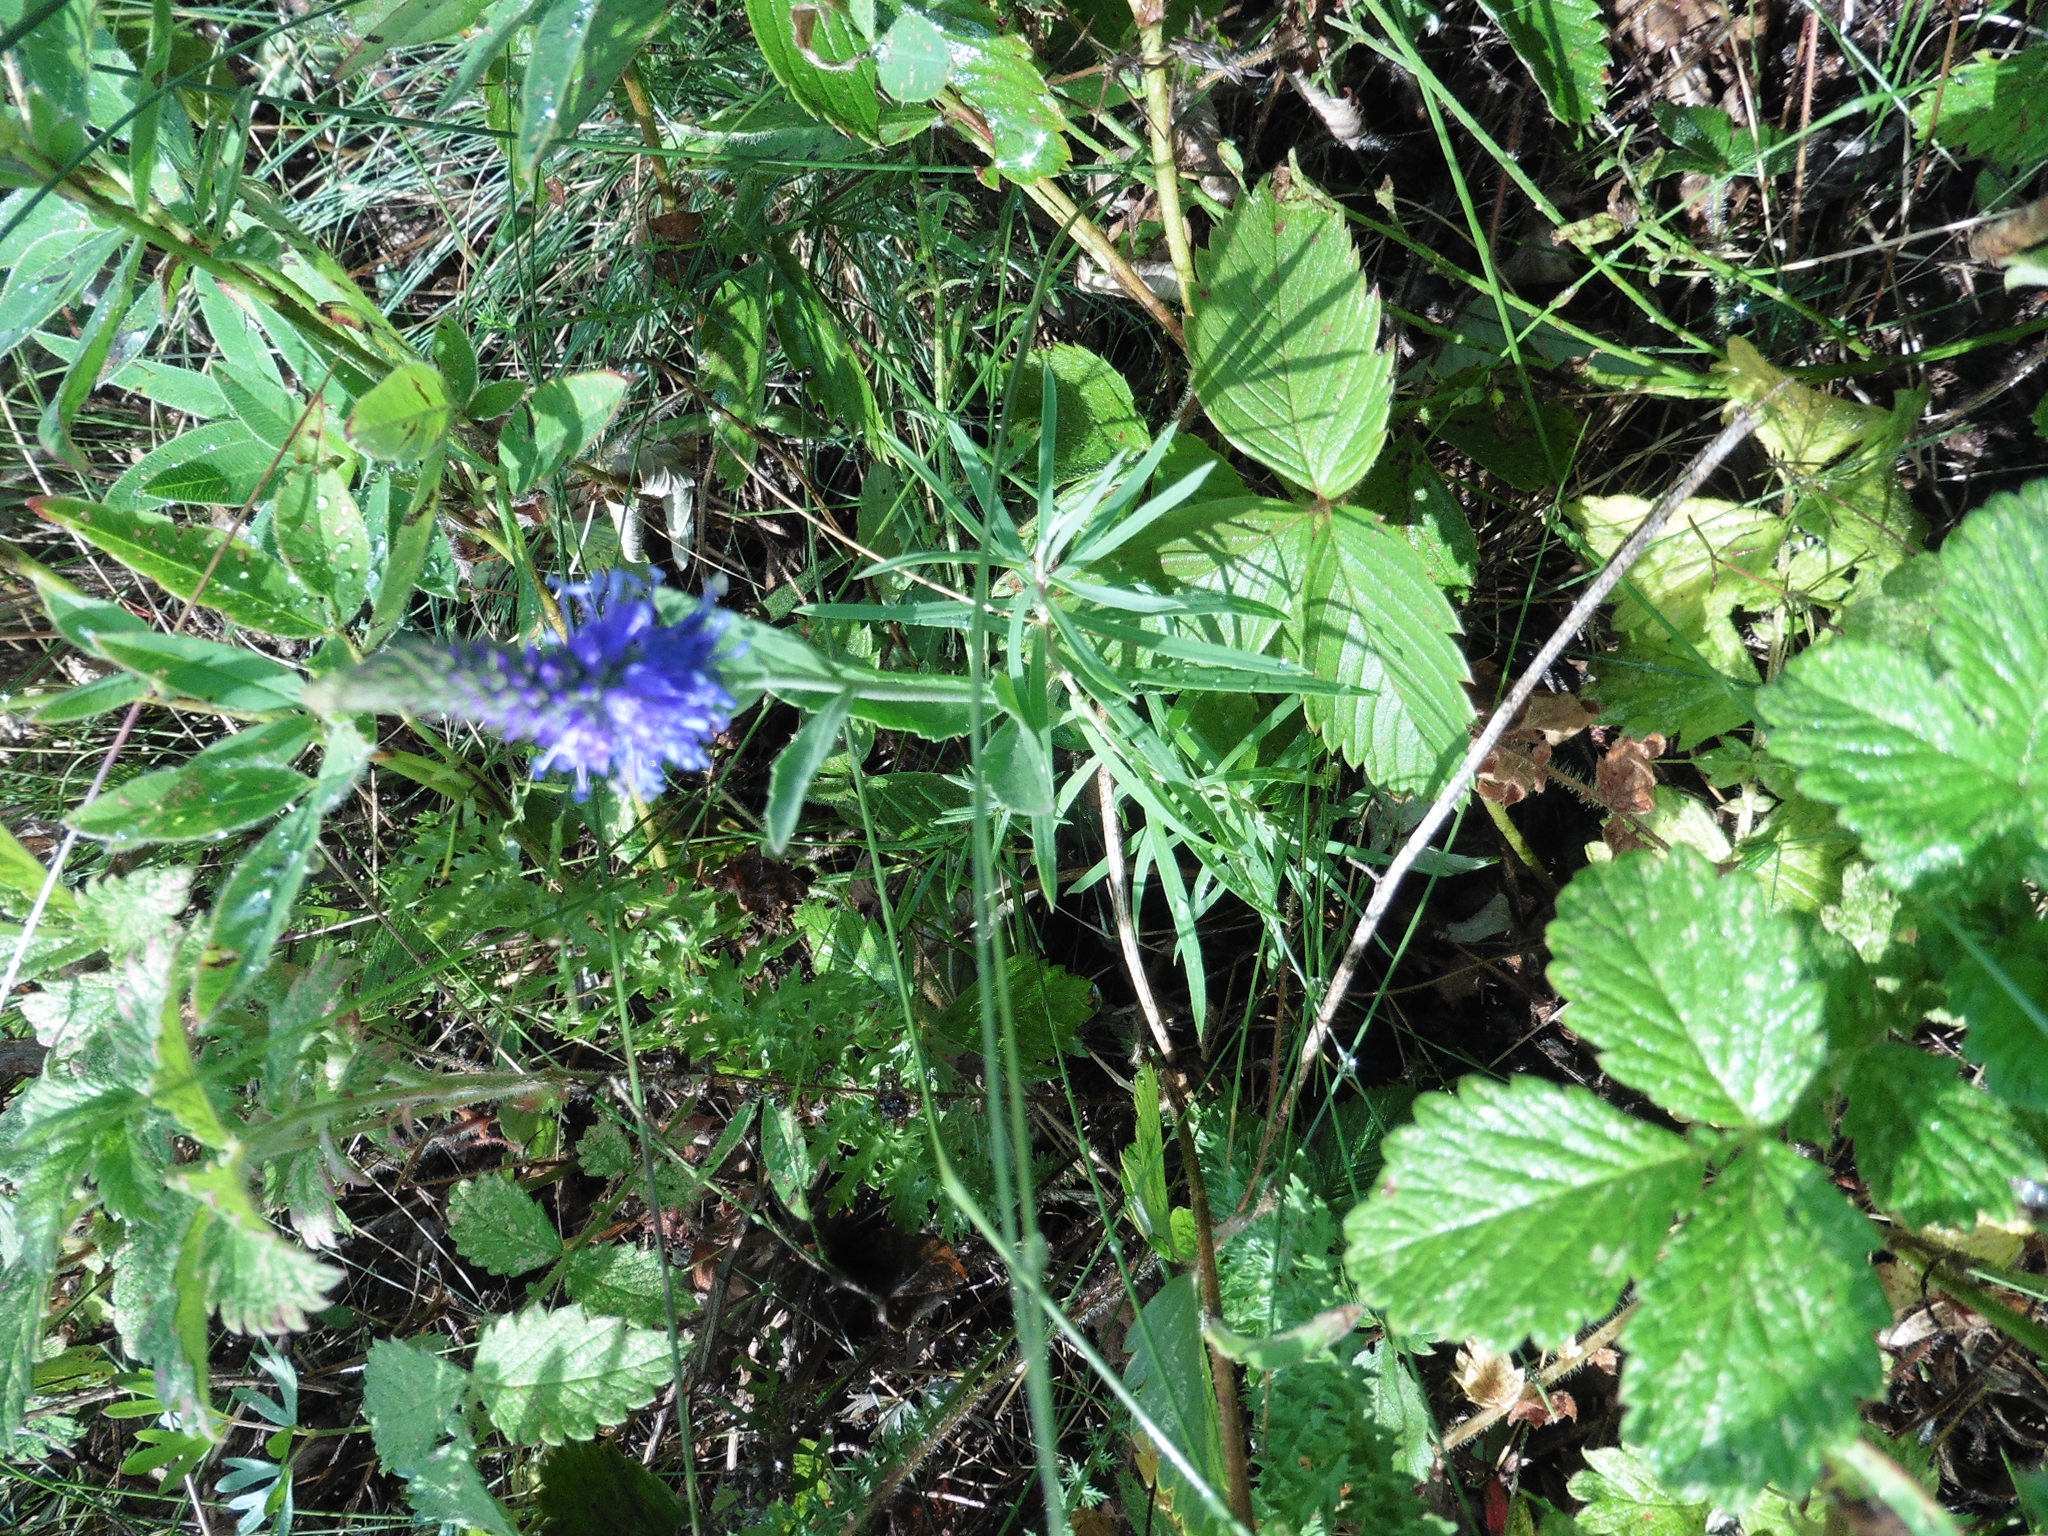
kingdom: Plantae
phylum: Tracheophyta
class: Magnoliopsida
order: Lamiales
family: Plantaginaceae
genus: Veronica
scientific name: Veronica spicata
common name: Spiked speedwell
